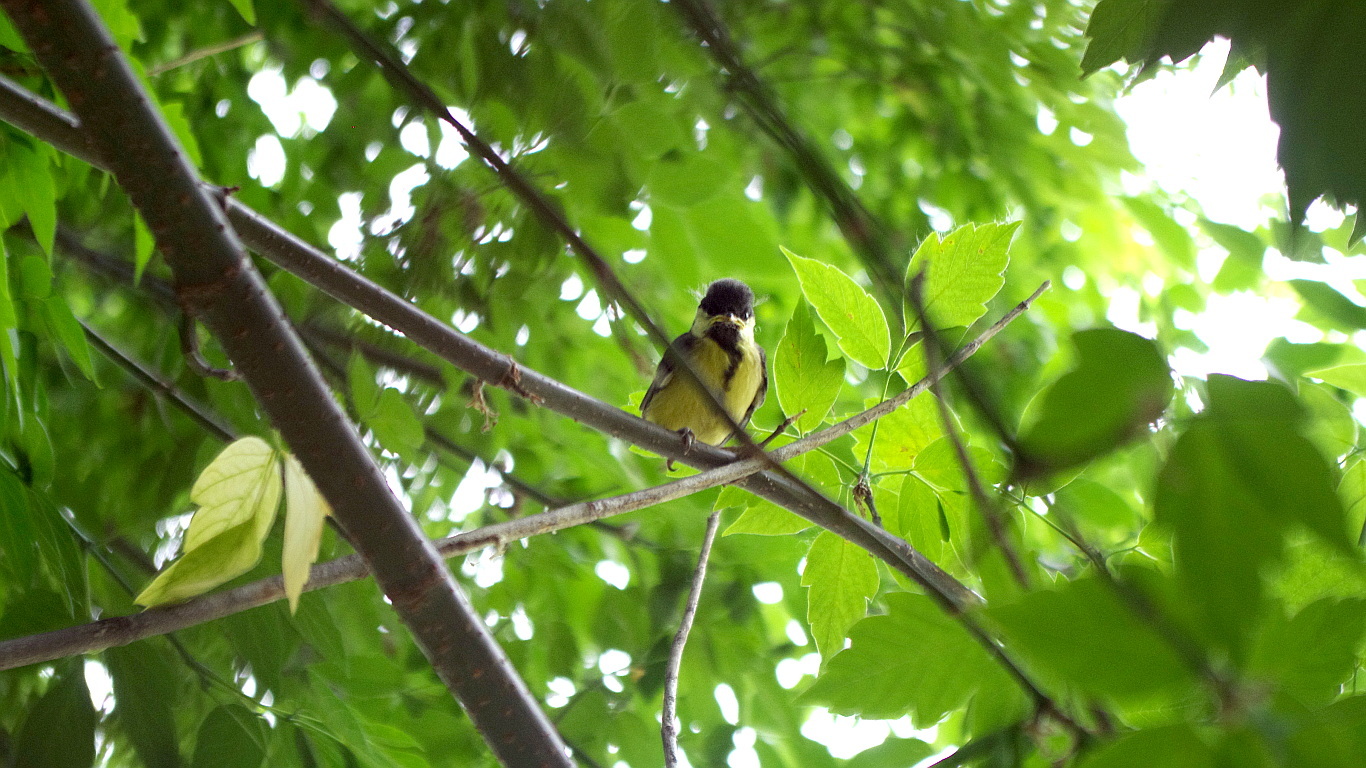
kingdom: Plantae
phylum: Tracheophyta
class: Magnoliopsida
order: Sapindales
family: Sapindaceae
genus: Acer
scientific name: Acer negundo
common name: Ashleaf maple
